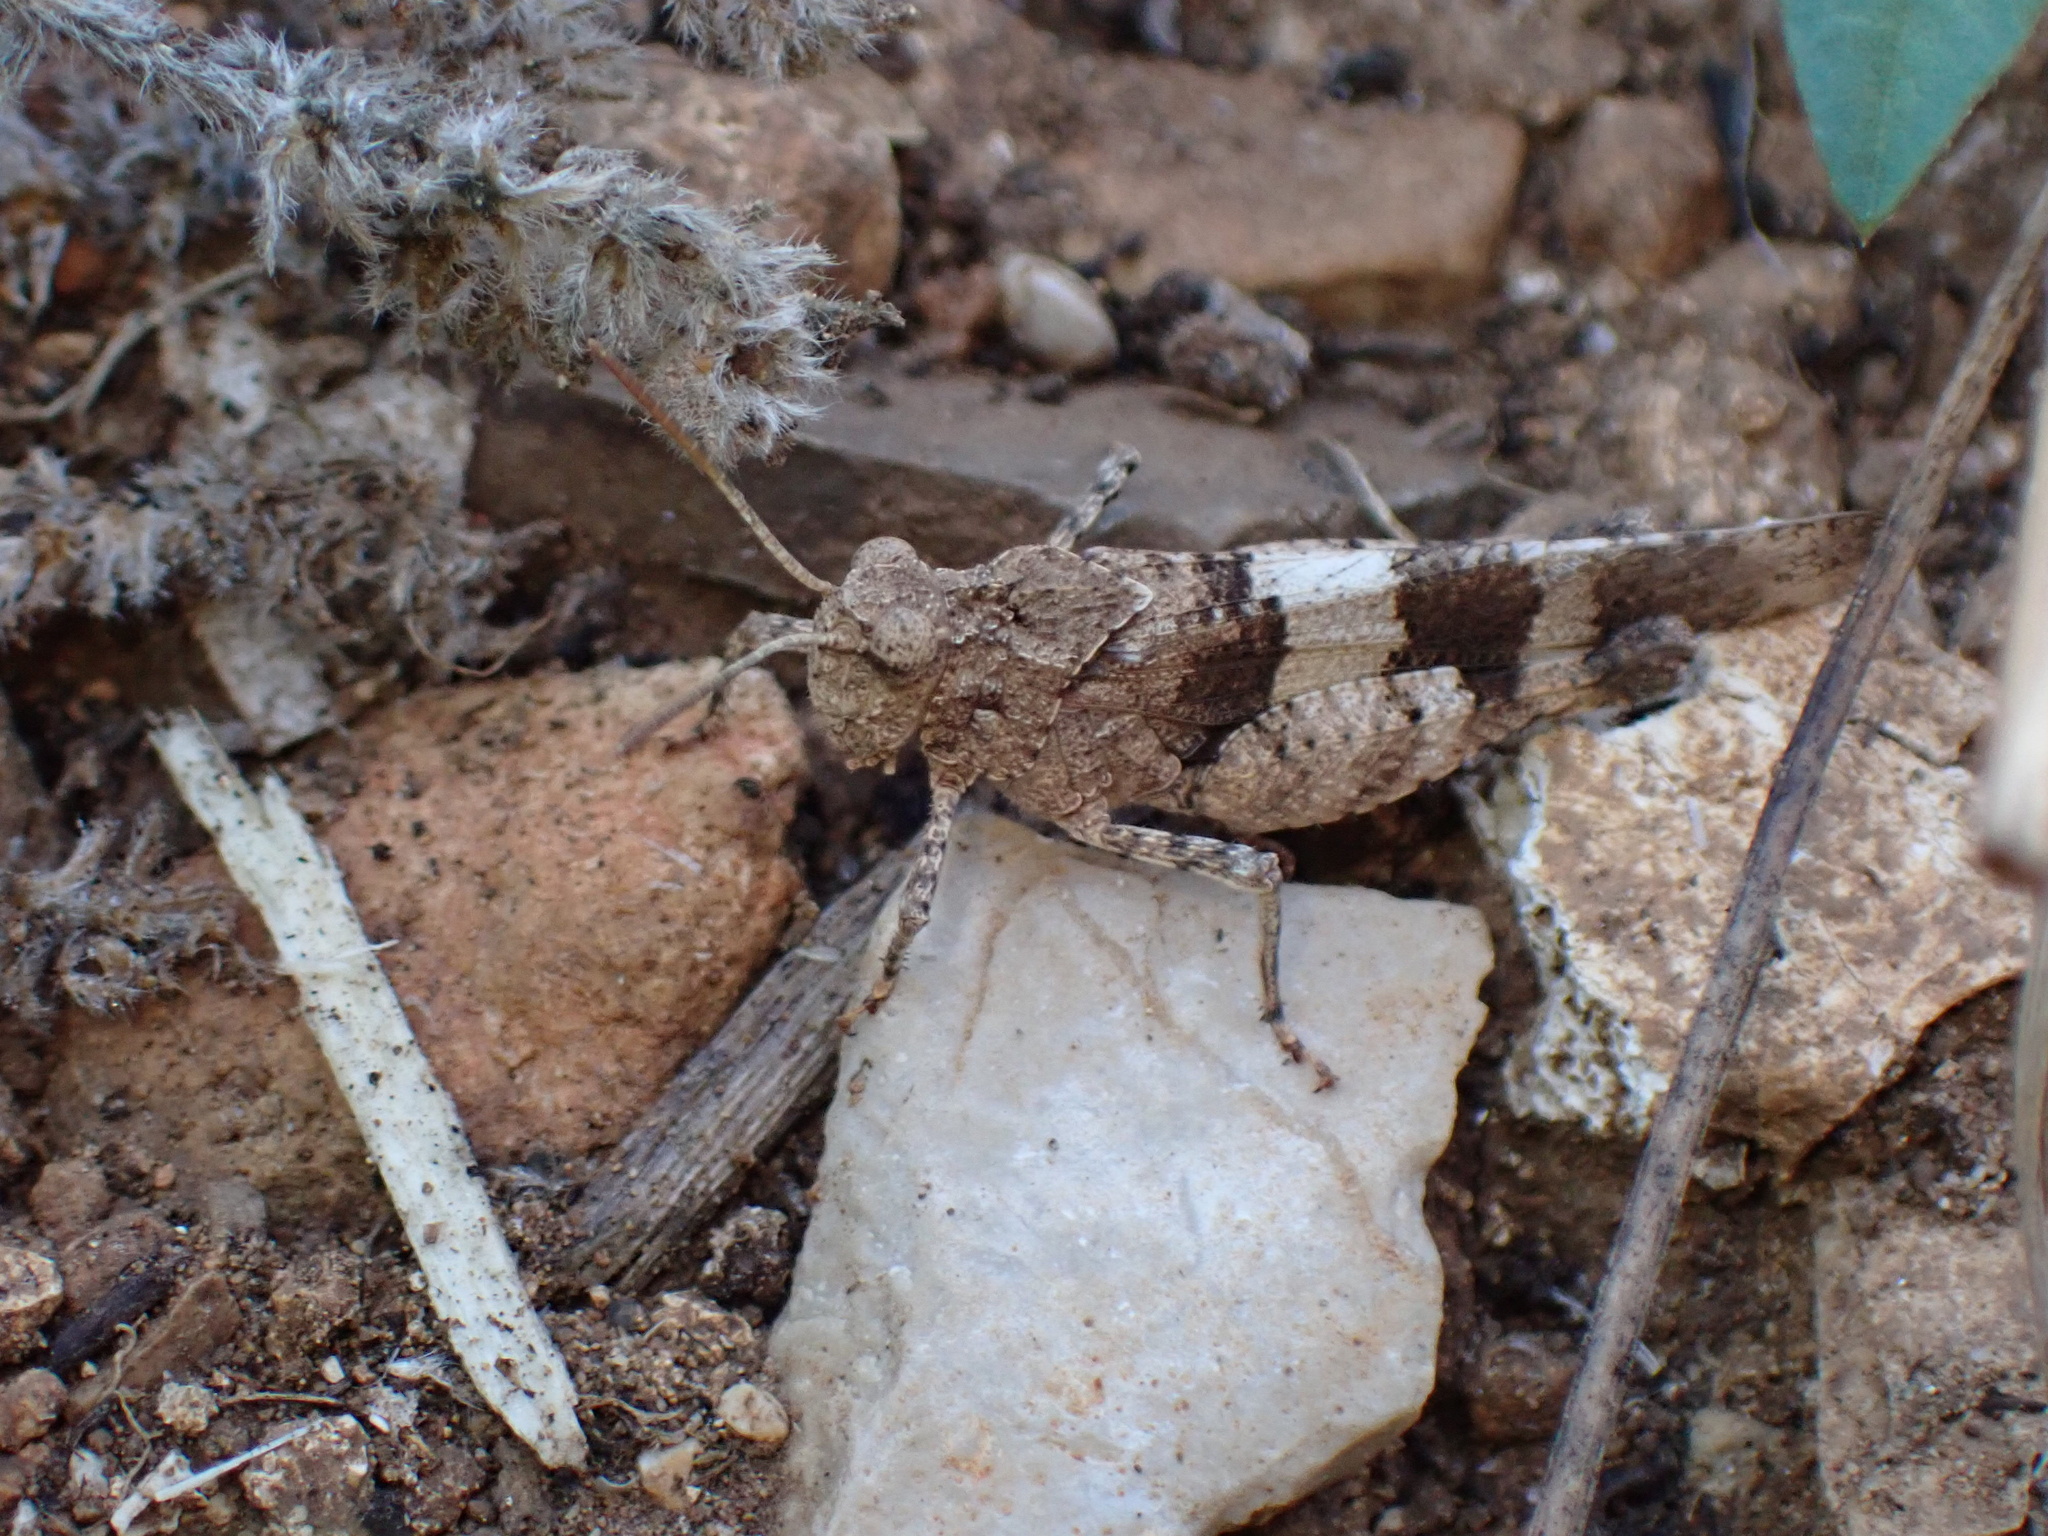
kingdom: Animalia
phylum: Arthropoda
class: Insecta
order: Orthoptera
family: Acrididae
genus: Oedipoda
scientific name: Oedipoda caerulescens
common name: Blue-winged grasshopper
